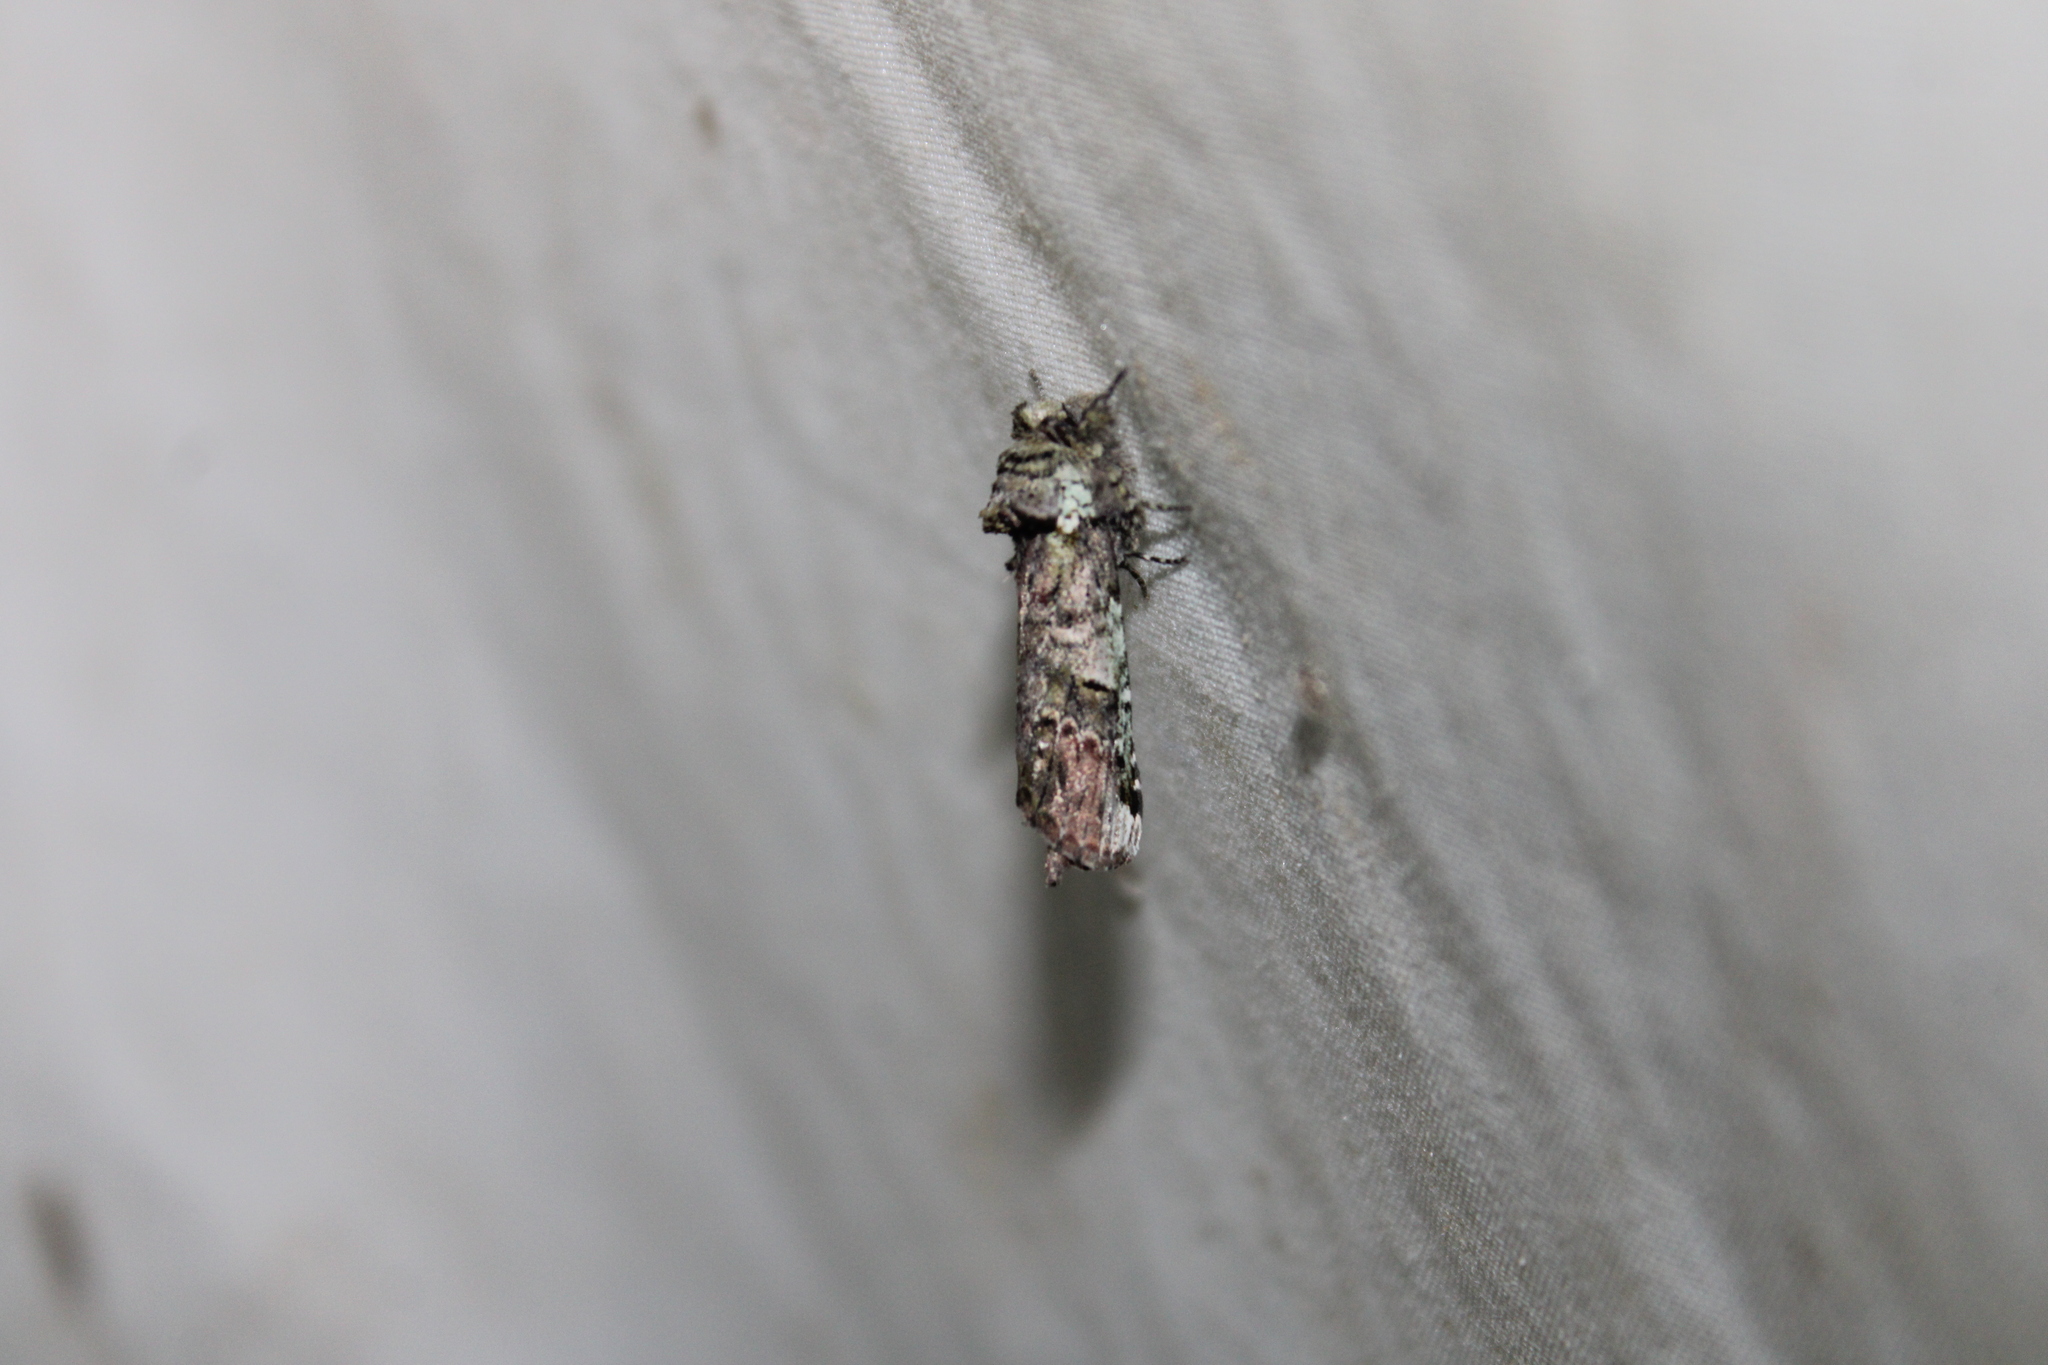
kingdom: Animalia
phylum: Arthropoda
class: Insecta
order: Lepidoptera
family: Notodontidae
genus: Schizura
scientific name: Schizura
